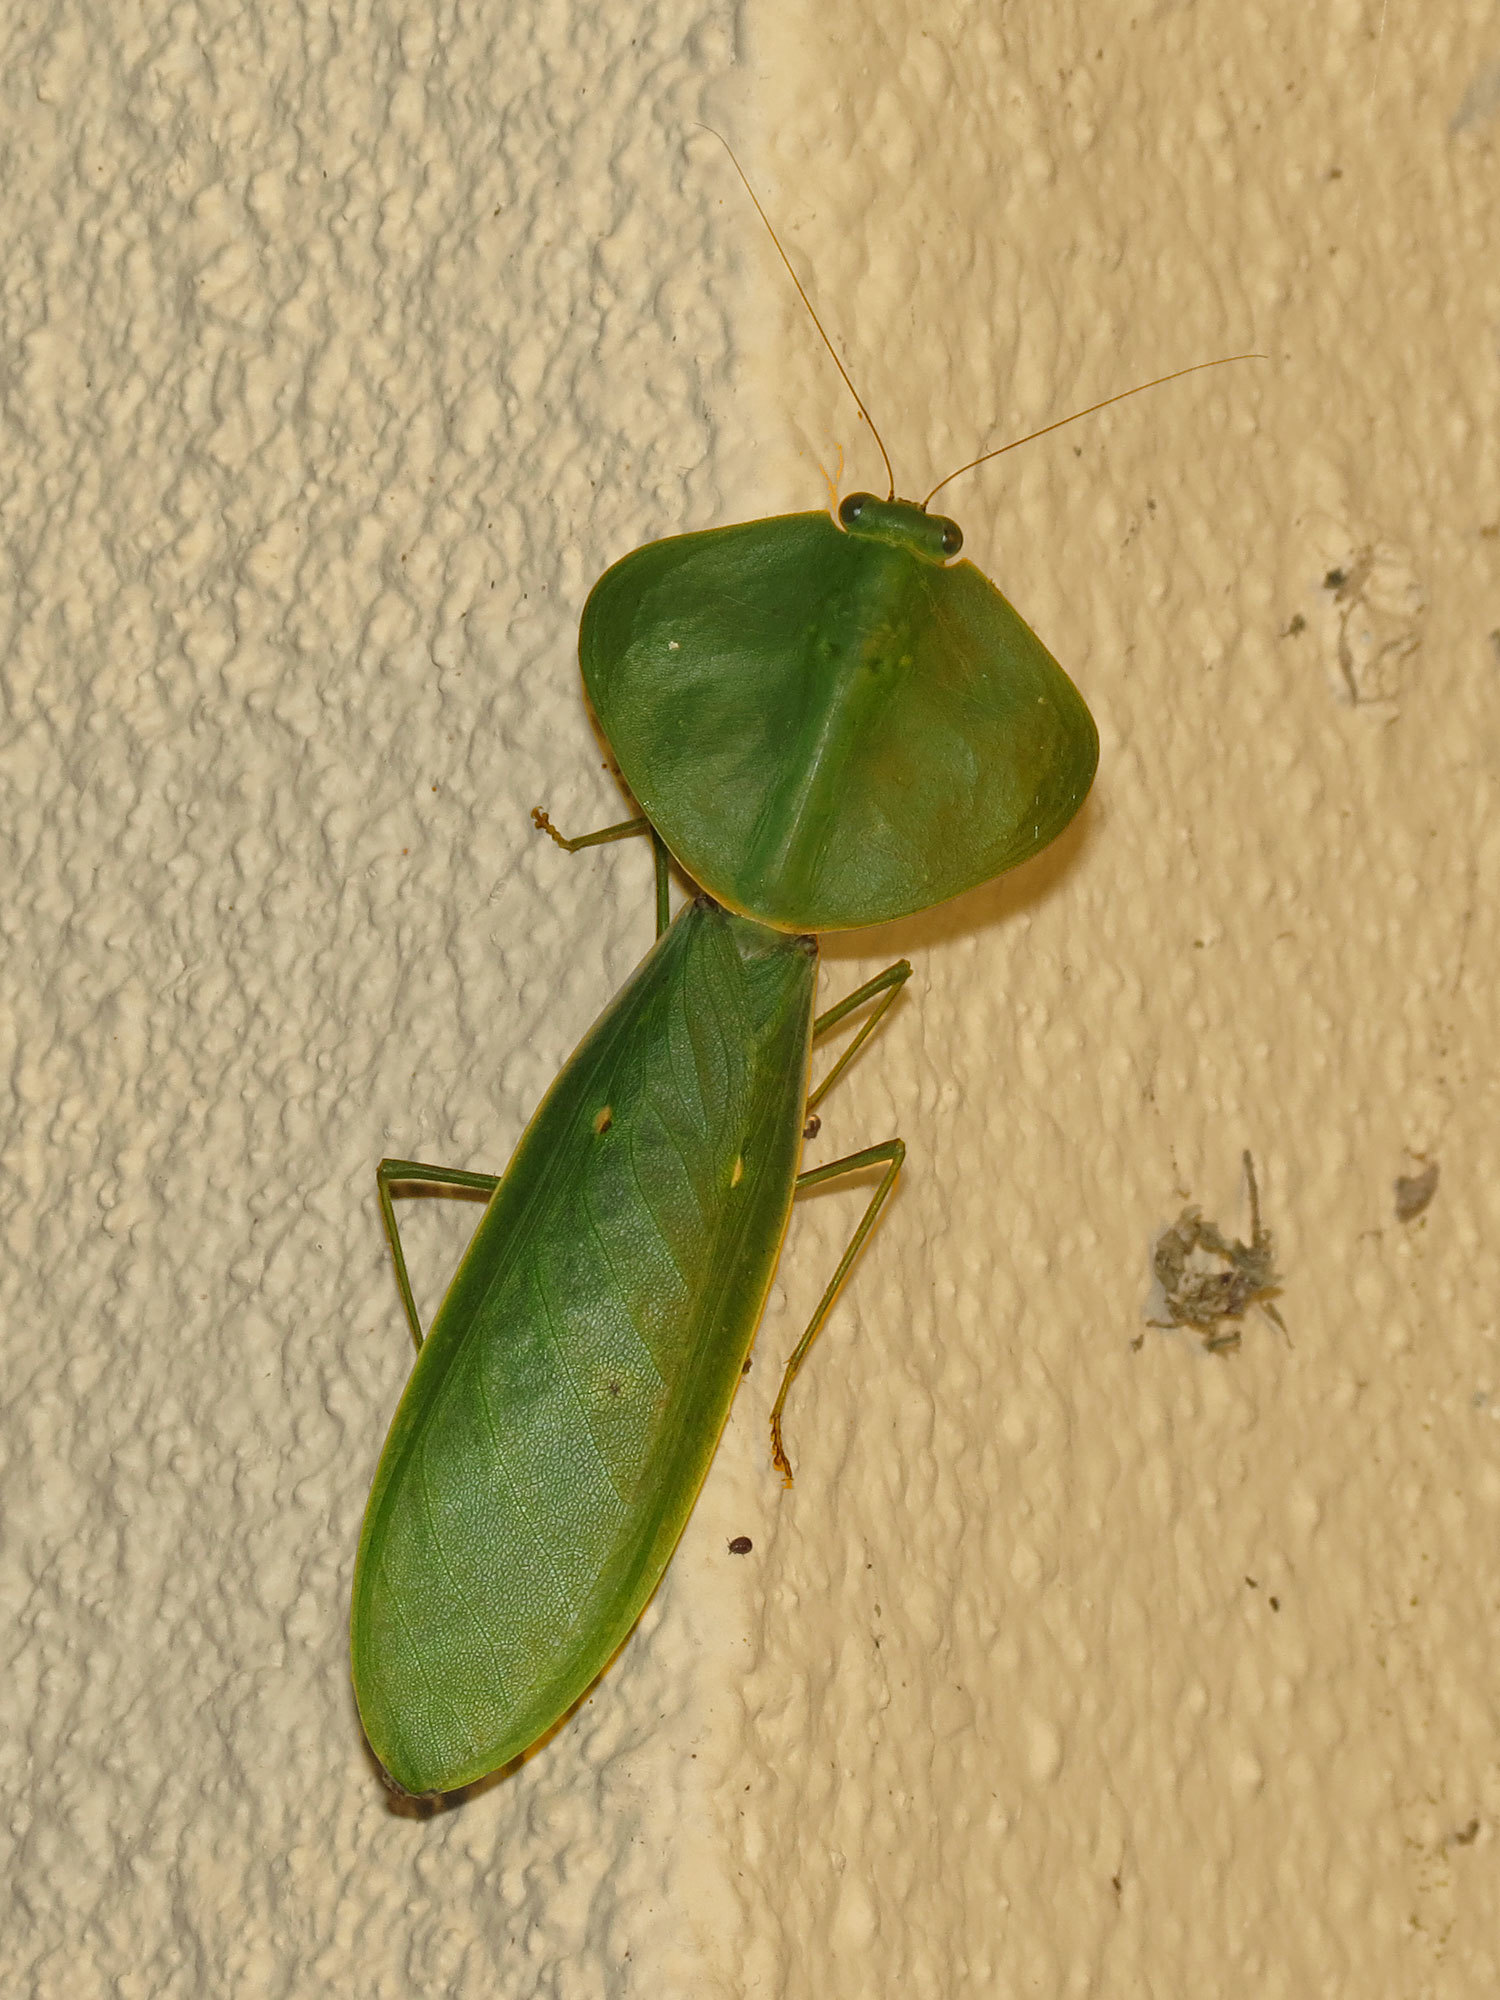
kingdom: Animalia
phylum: Arthropoda
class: Insecta
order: Mantodea
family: Mantidae
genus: Choeradodis
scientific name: Choeradodis rhombicollis
